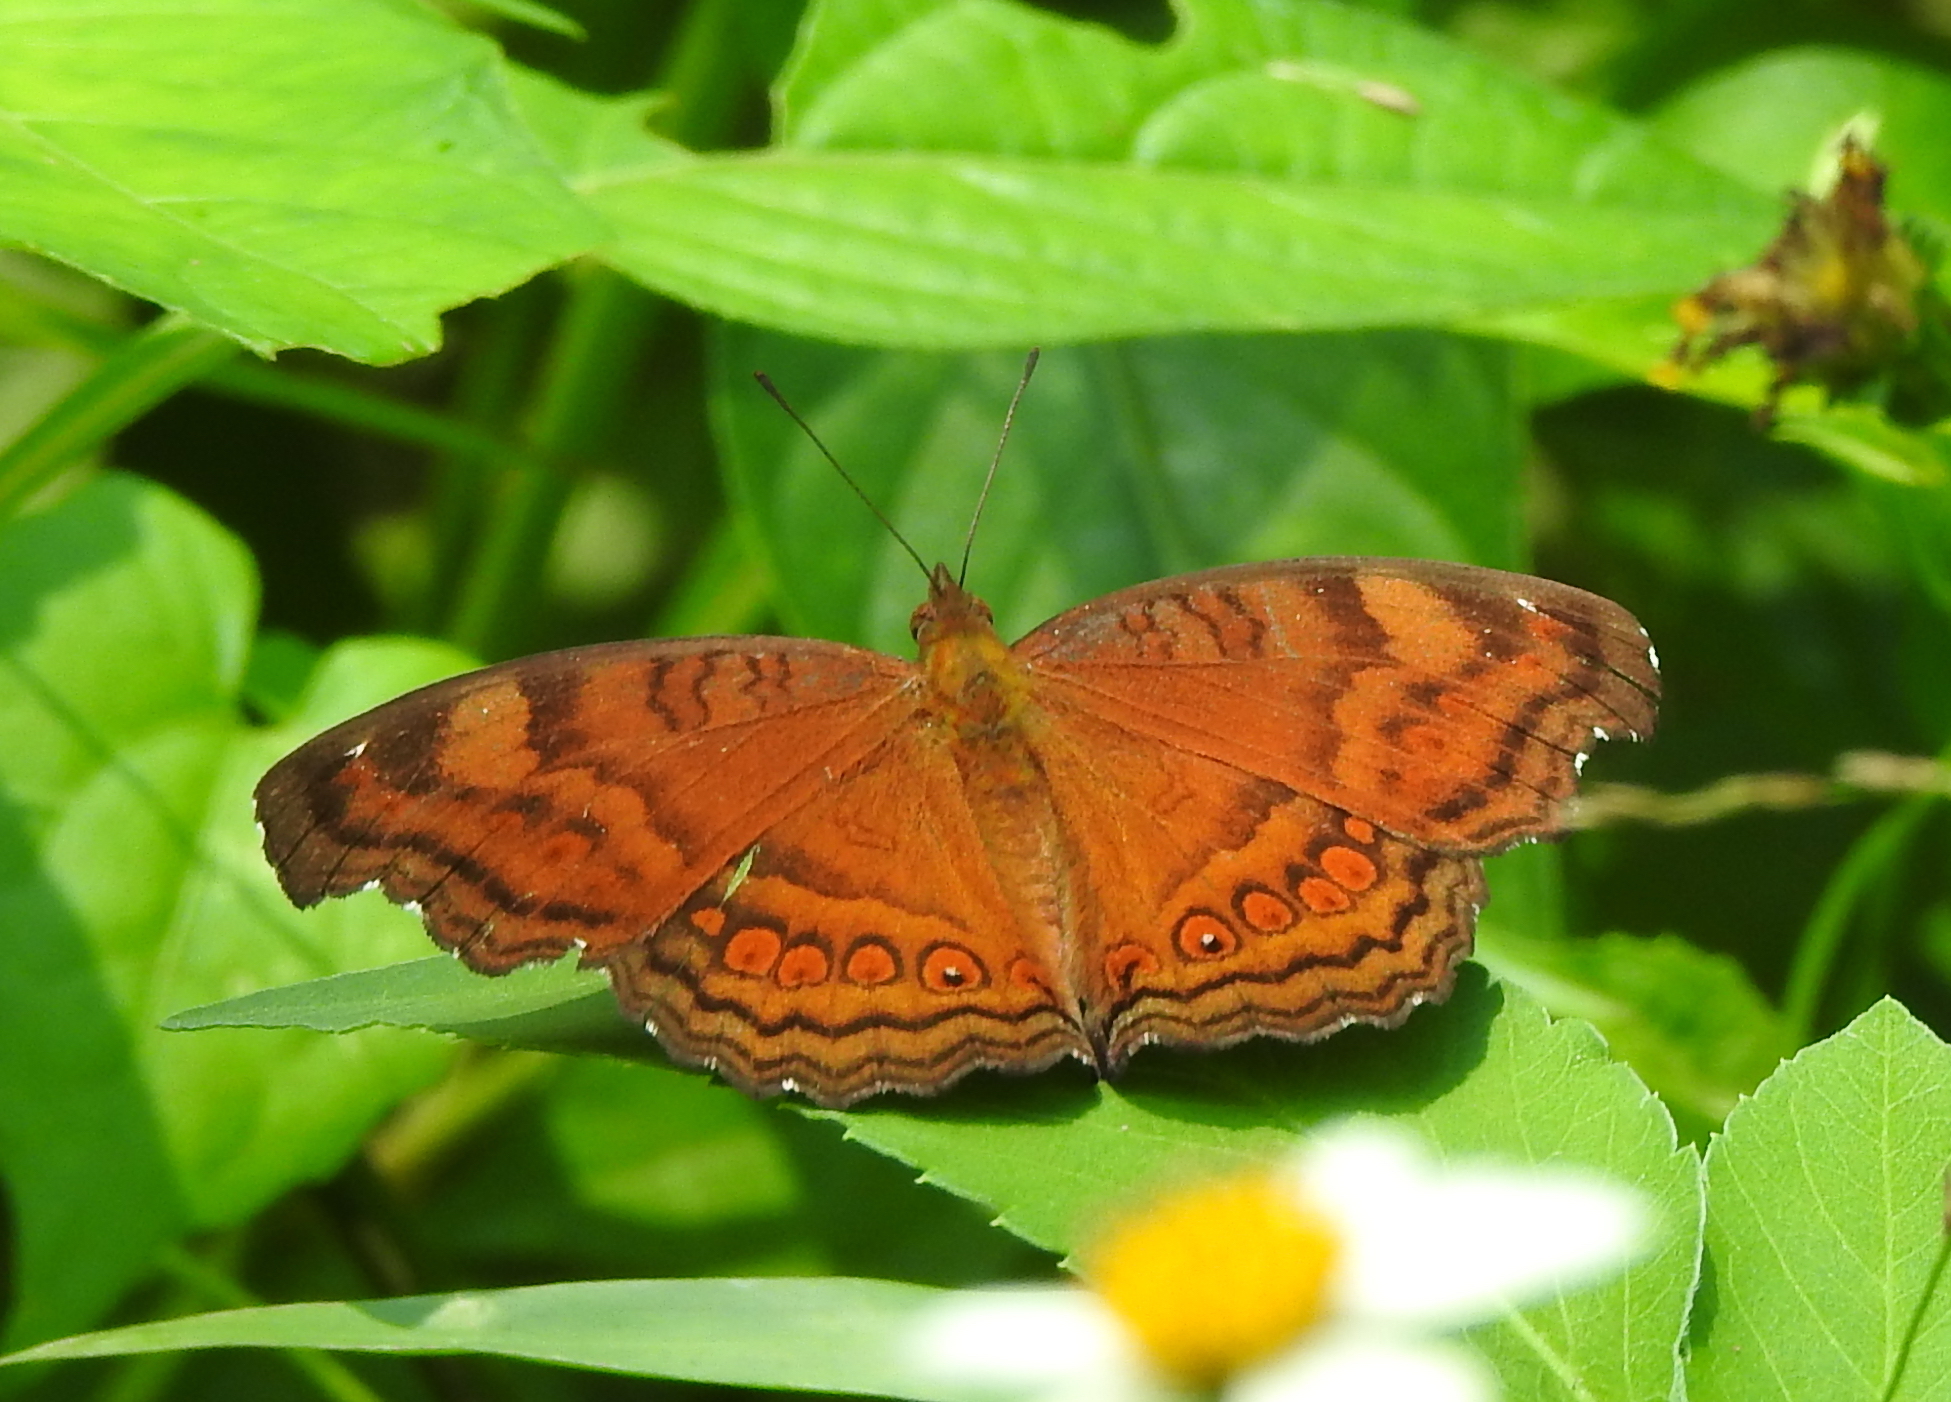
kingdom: Animalia
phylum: Arthropoda
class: Insecta
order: Lepidoptera
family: Nymphalidae
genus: Junonia
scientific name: Junonia hedonia
